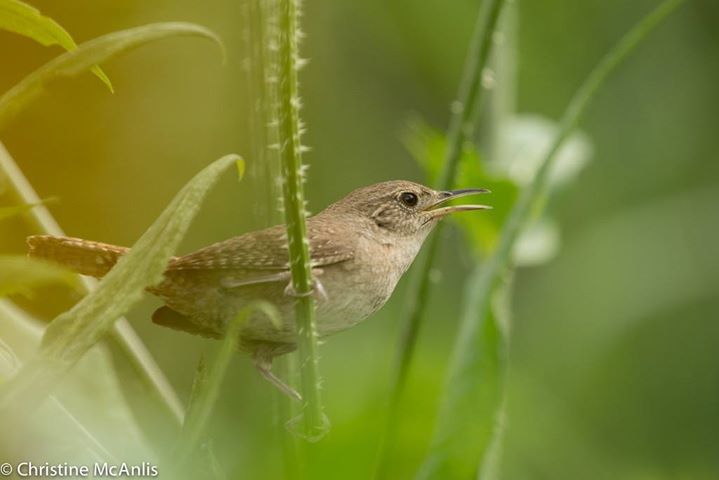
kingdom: Animalia
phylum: Chordata
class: Aves
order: Passeriformes
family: Troglodytidae
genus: Troglodytes
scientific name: Troglodytes aedon
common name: House wren
